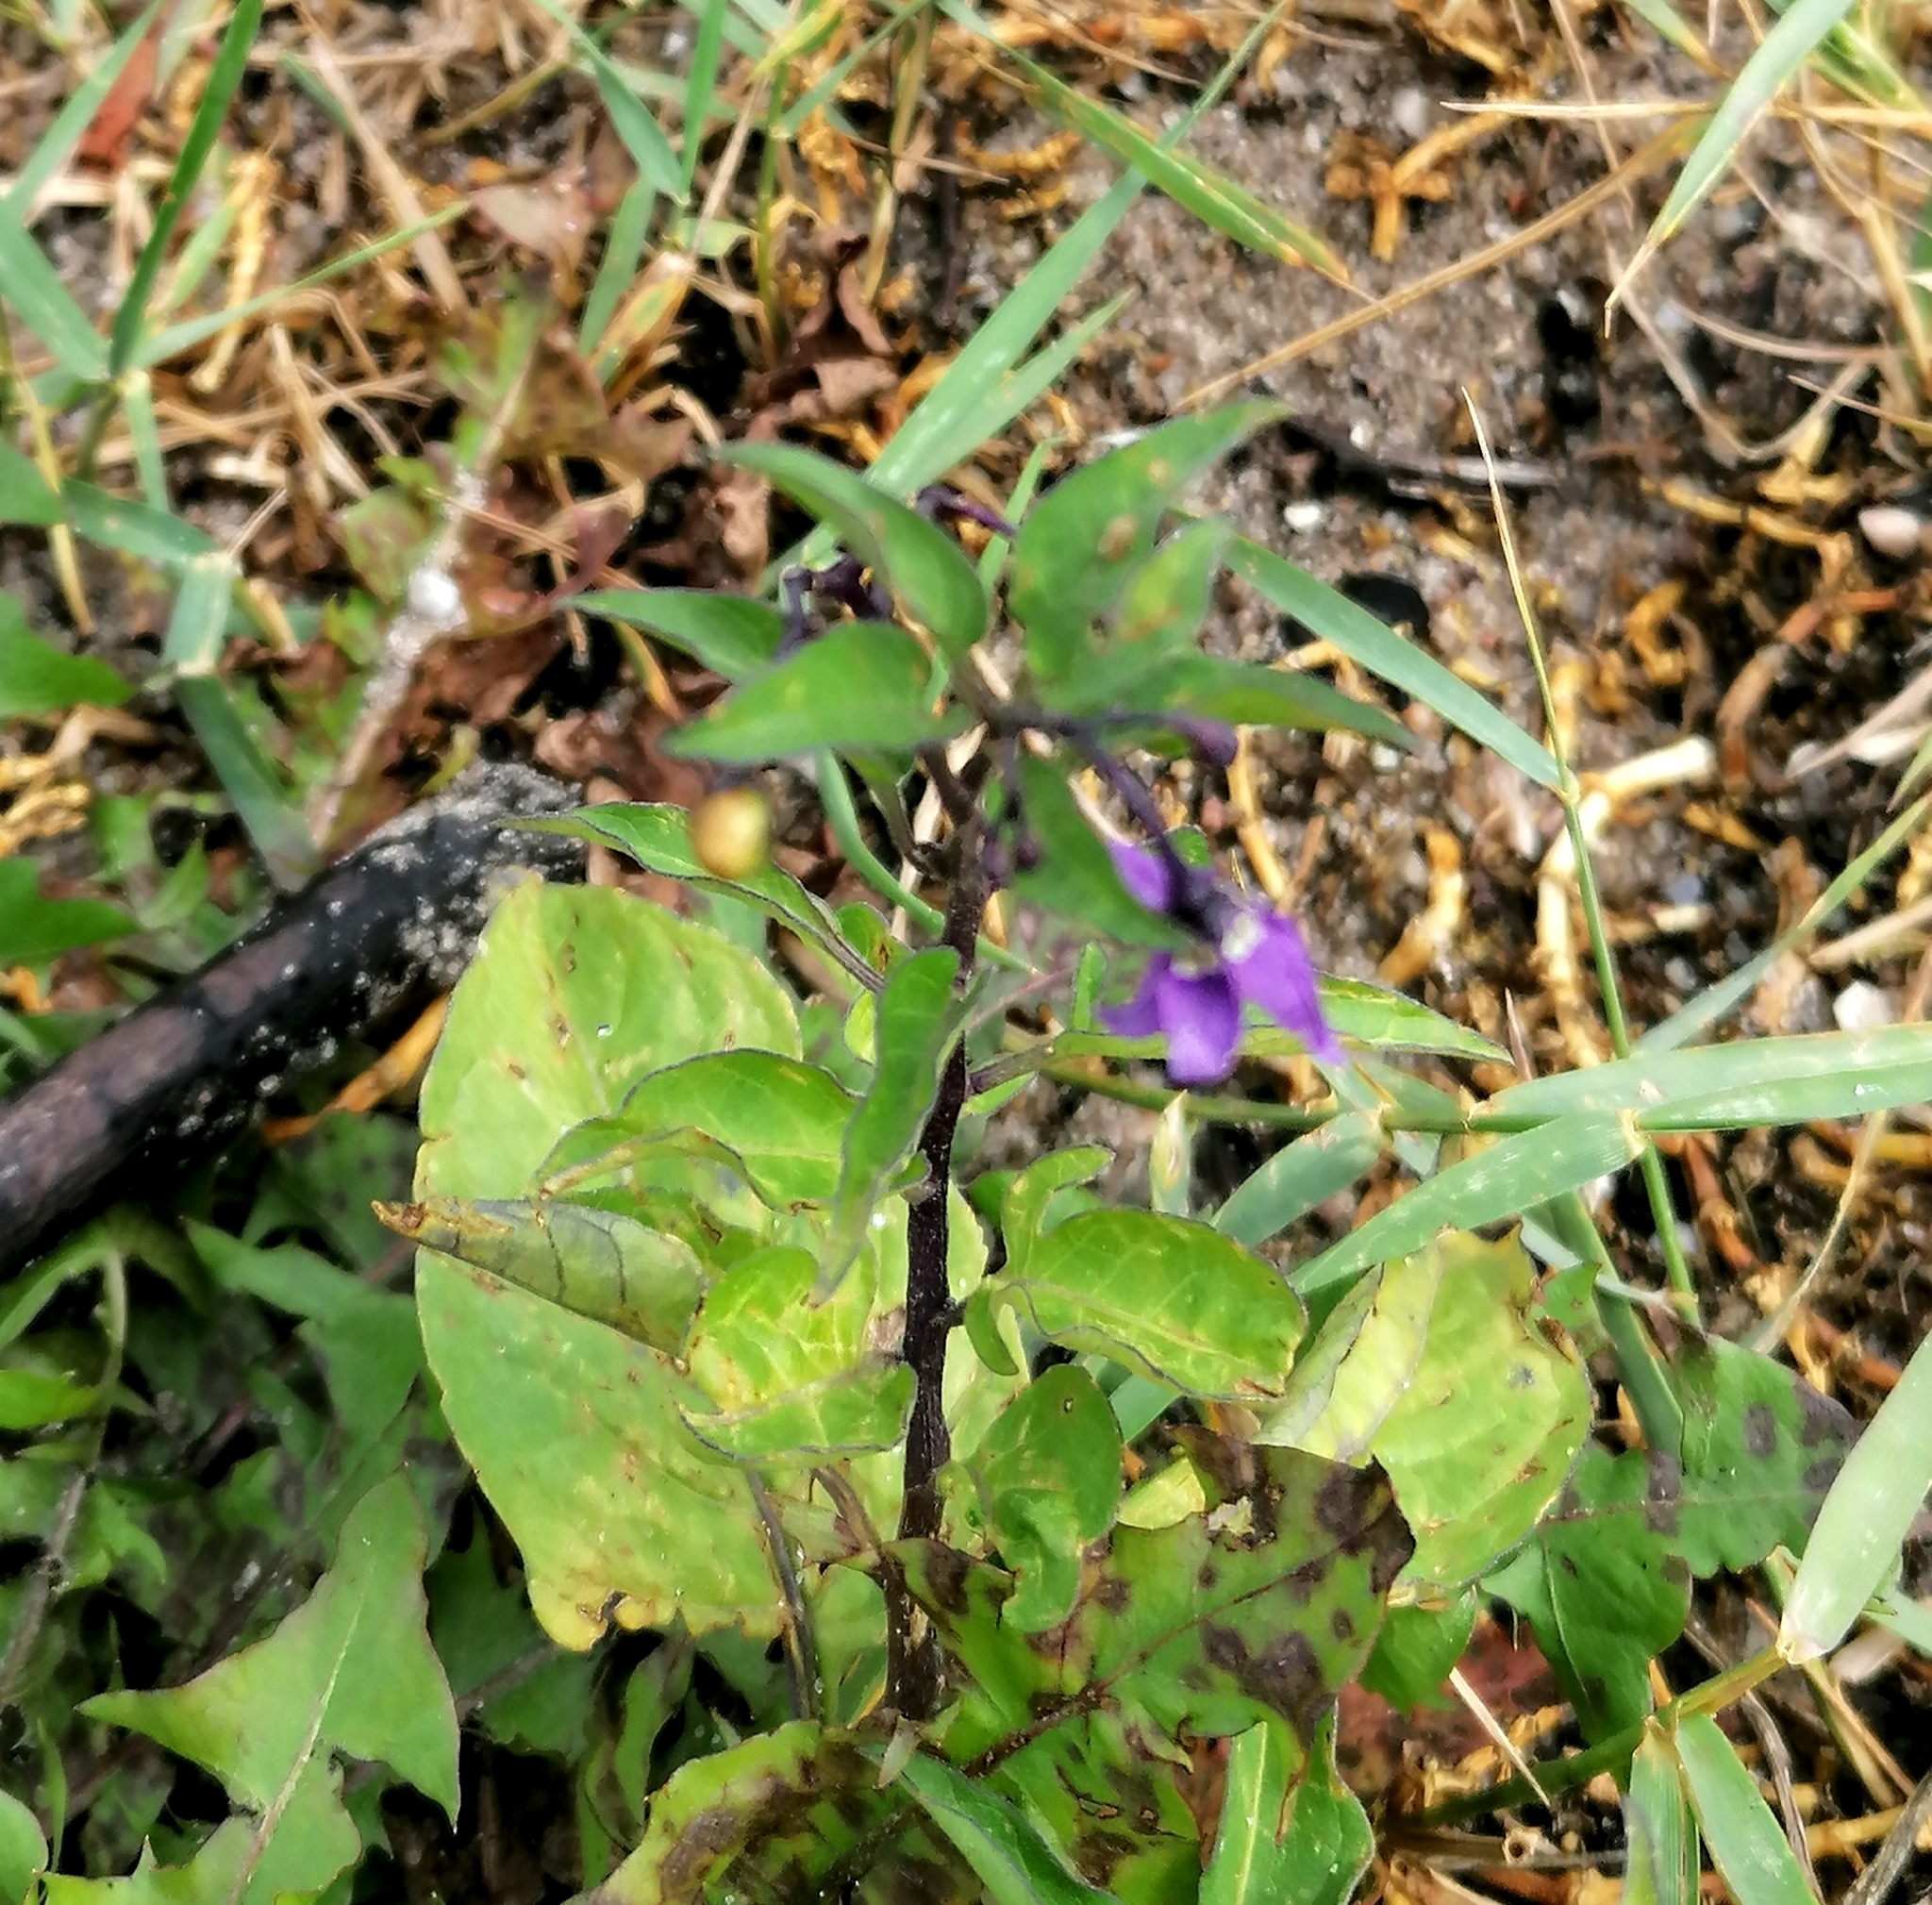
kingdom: Plantae
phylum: Tracheophyta
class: Magnoliopsida
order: Solanales
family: Solanaceae
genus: Solanum
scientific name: Solanum dulcamara
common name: Climbing nightshade
